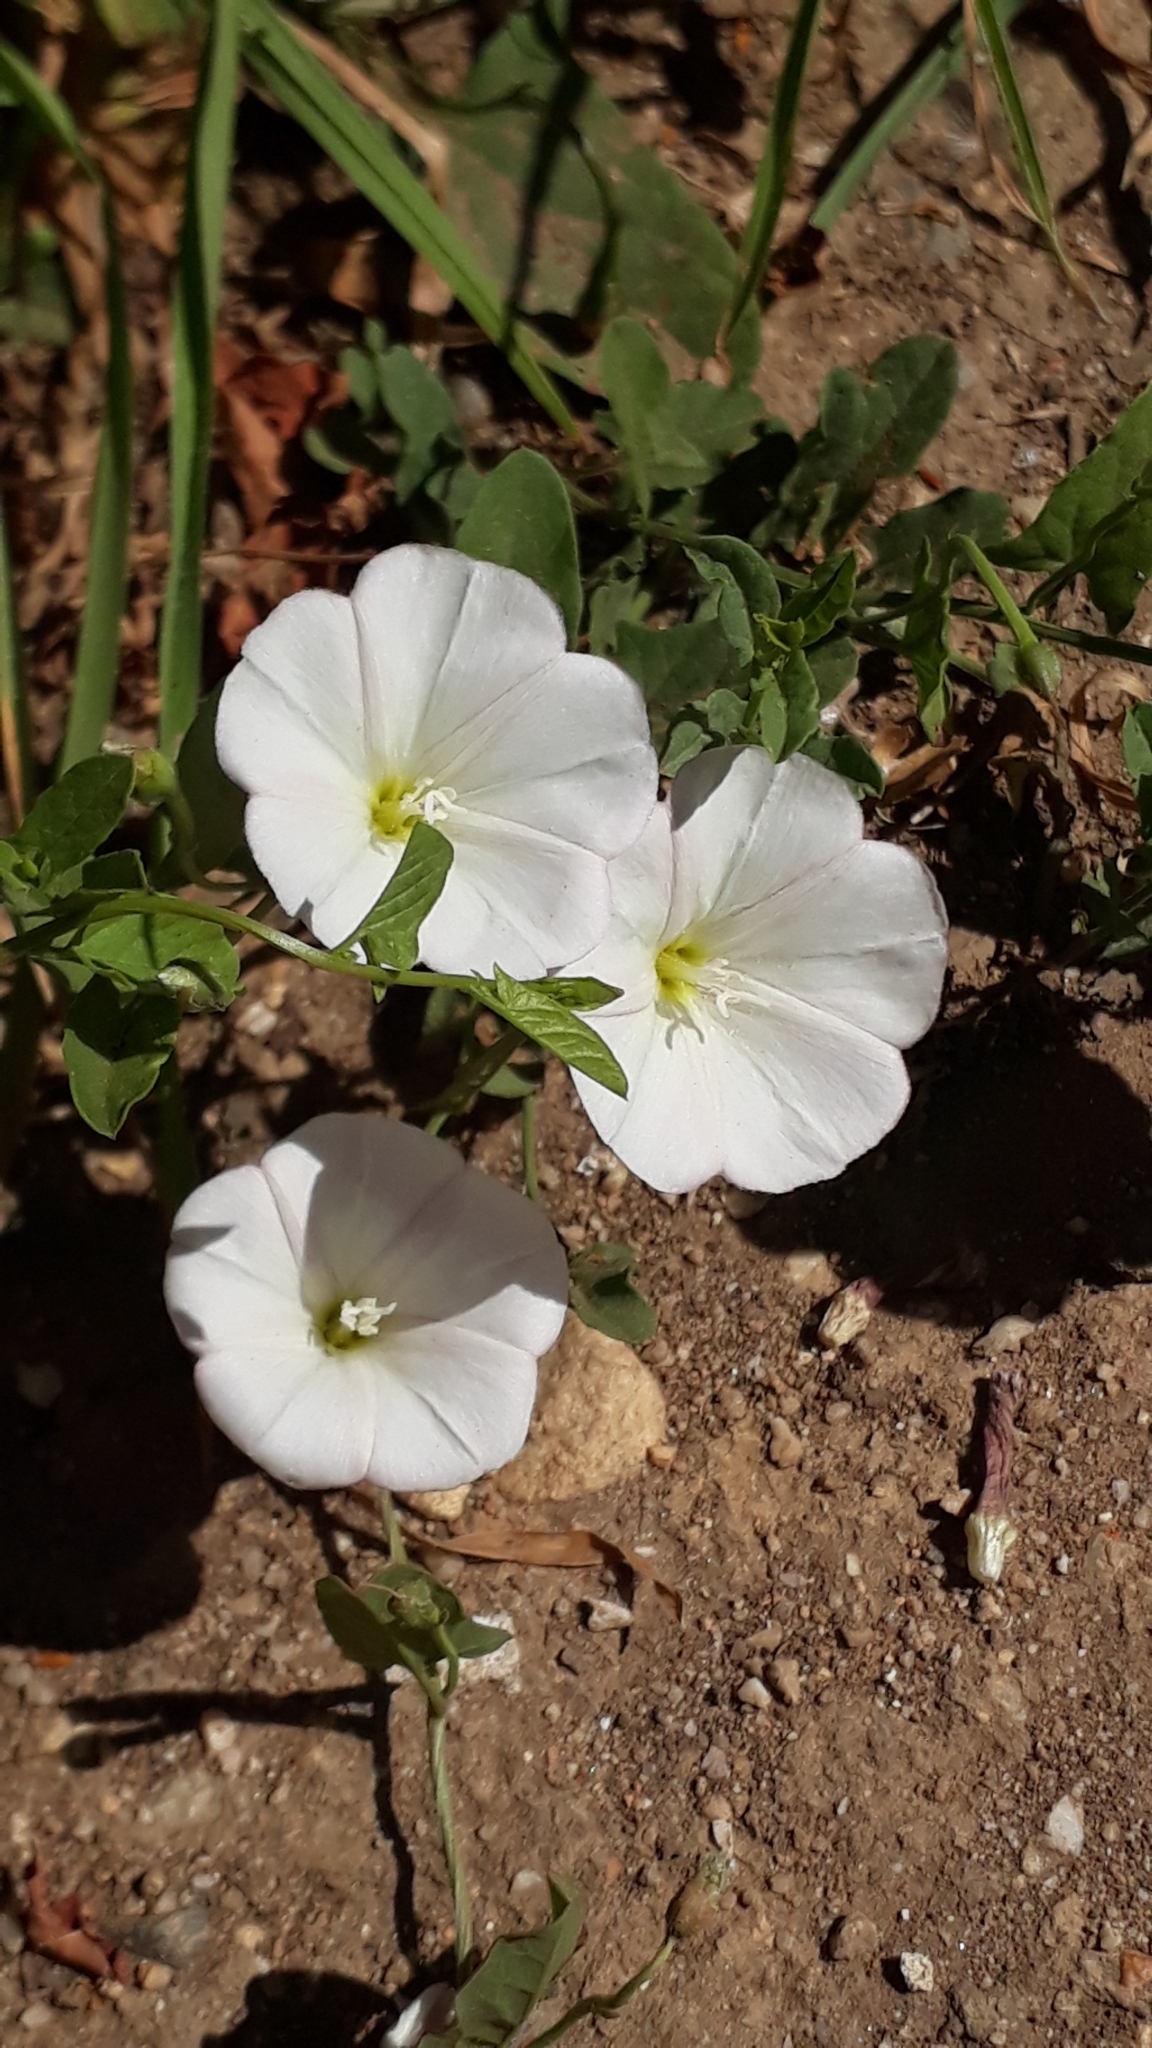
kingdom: Plantae
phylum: Tracheophyta
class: Magnoliopsida
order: Solanales
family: Convolvulaceae
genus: Convolvulus
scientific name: Convolvulus arvensis
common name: Field bindweed
